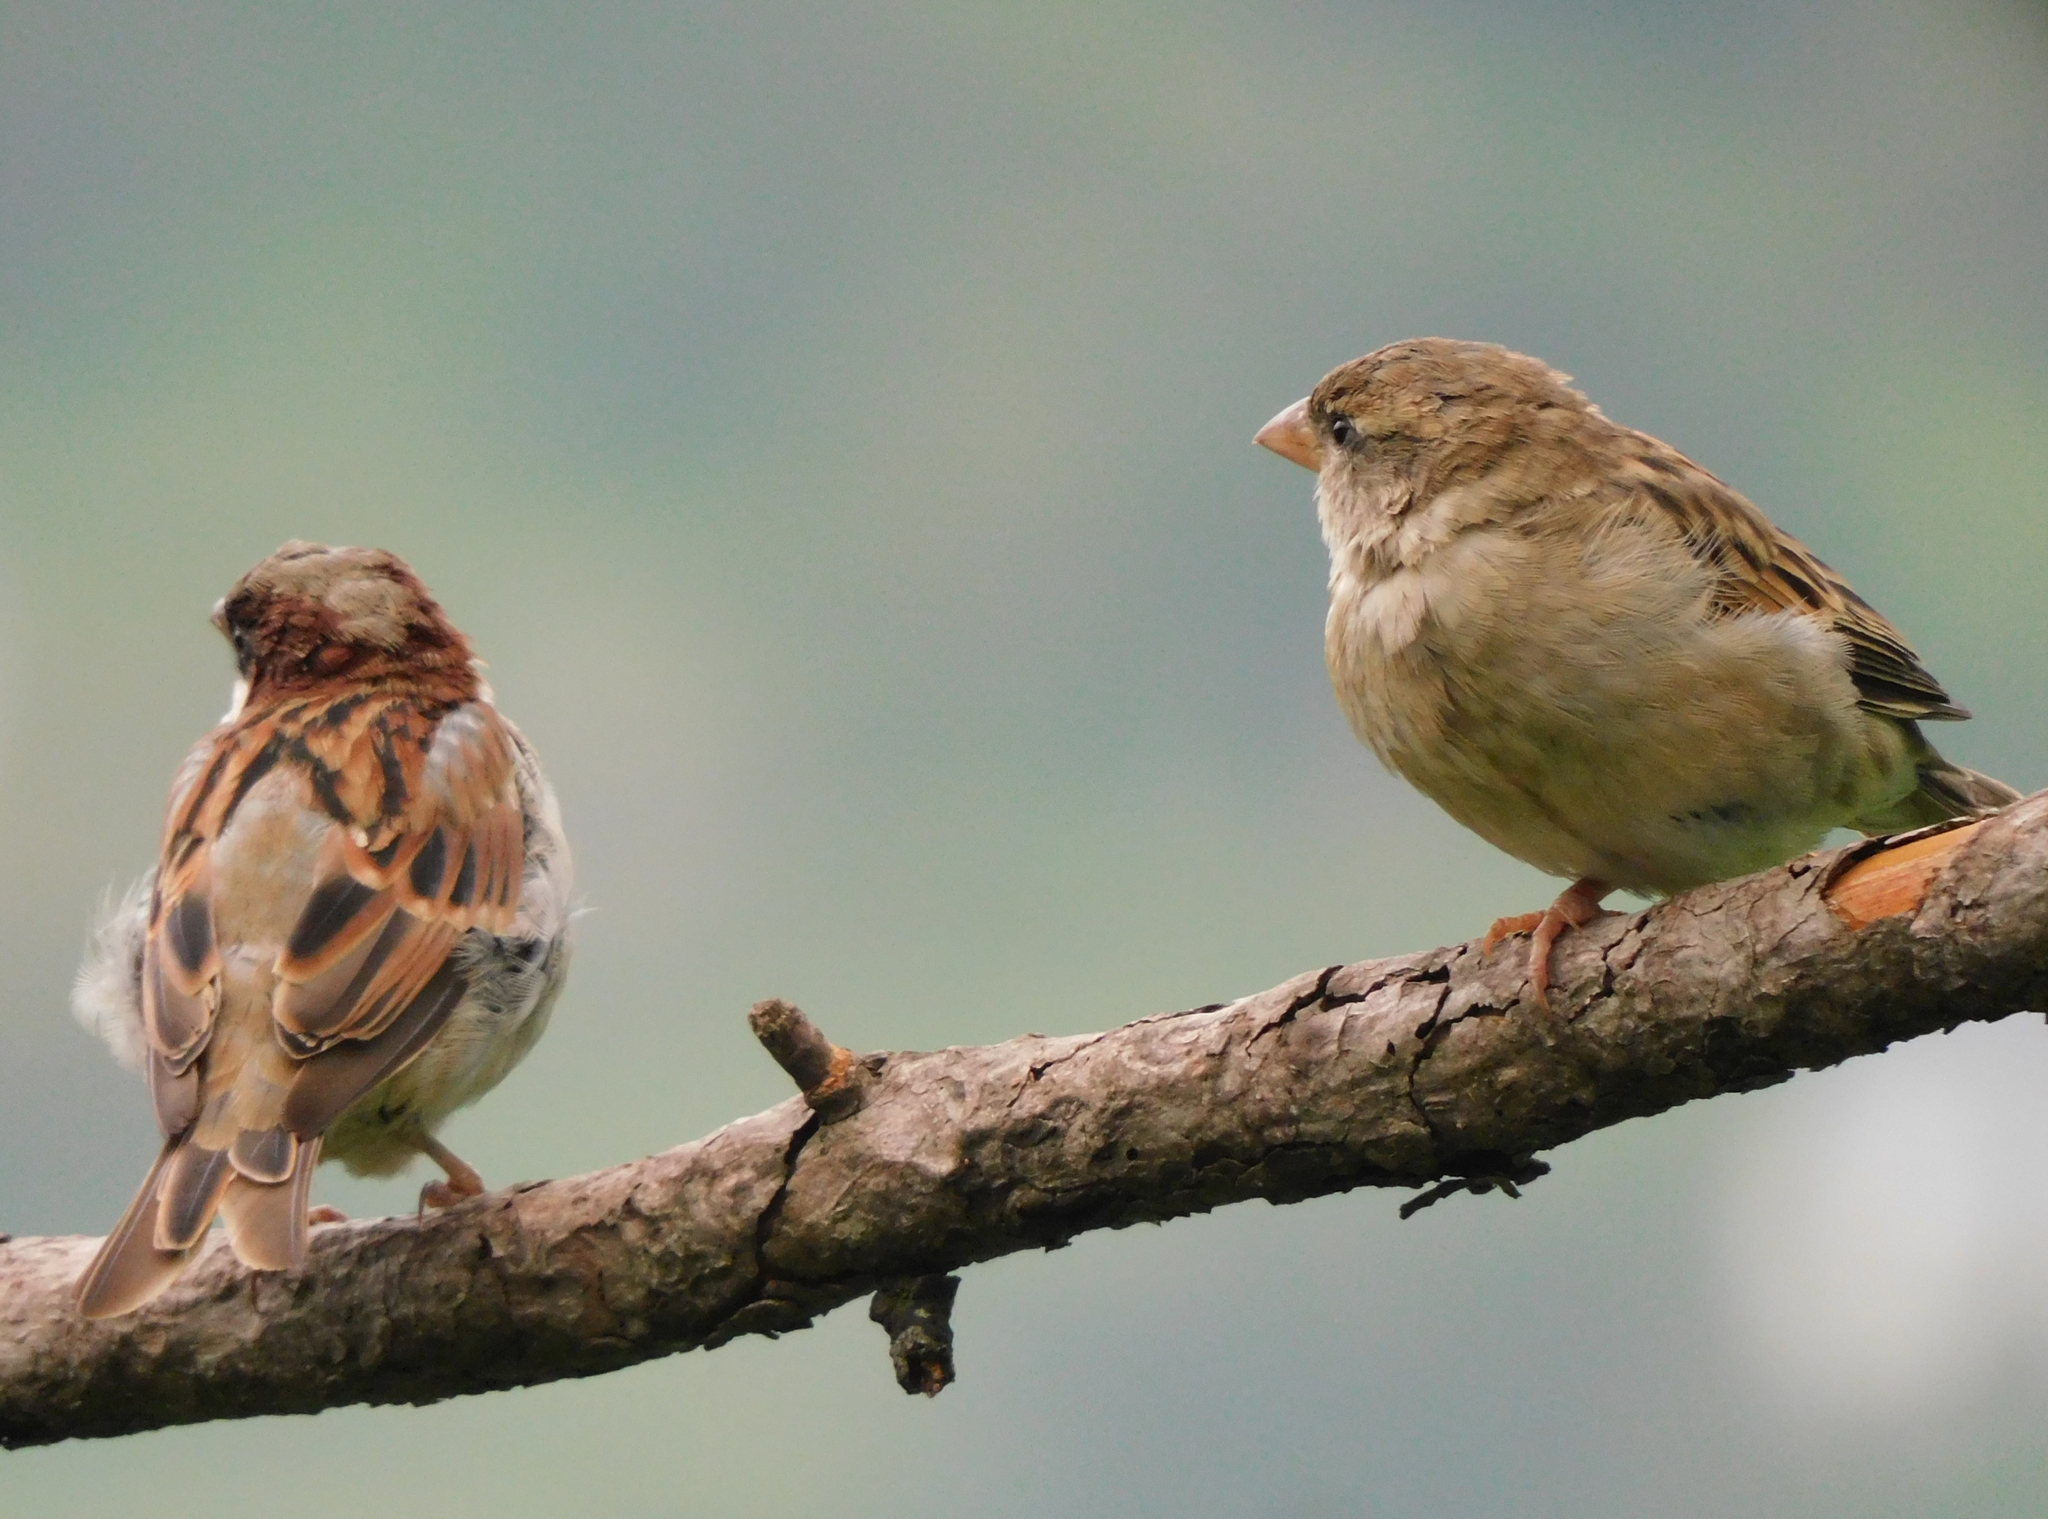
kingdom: Animalia
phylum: Chordata
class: Aves
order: Passeriformes
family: Passeridae
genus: Passer
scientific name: Passer domesticus
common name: House sparrow
